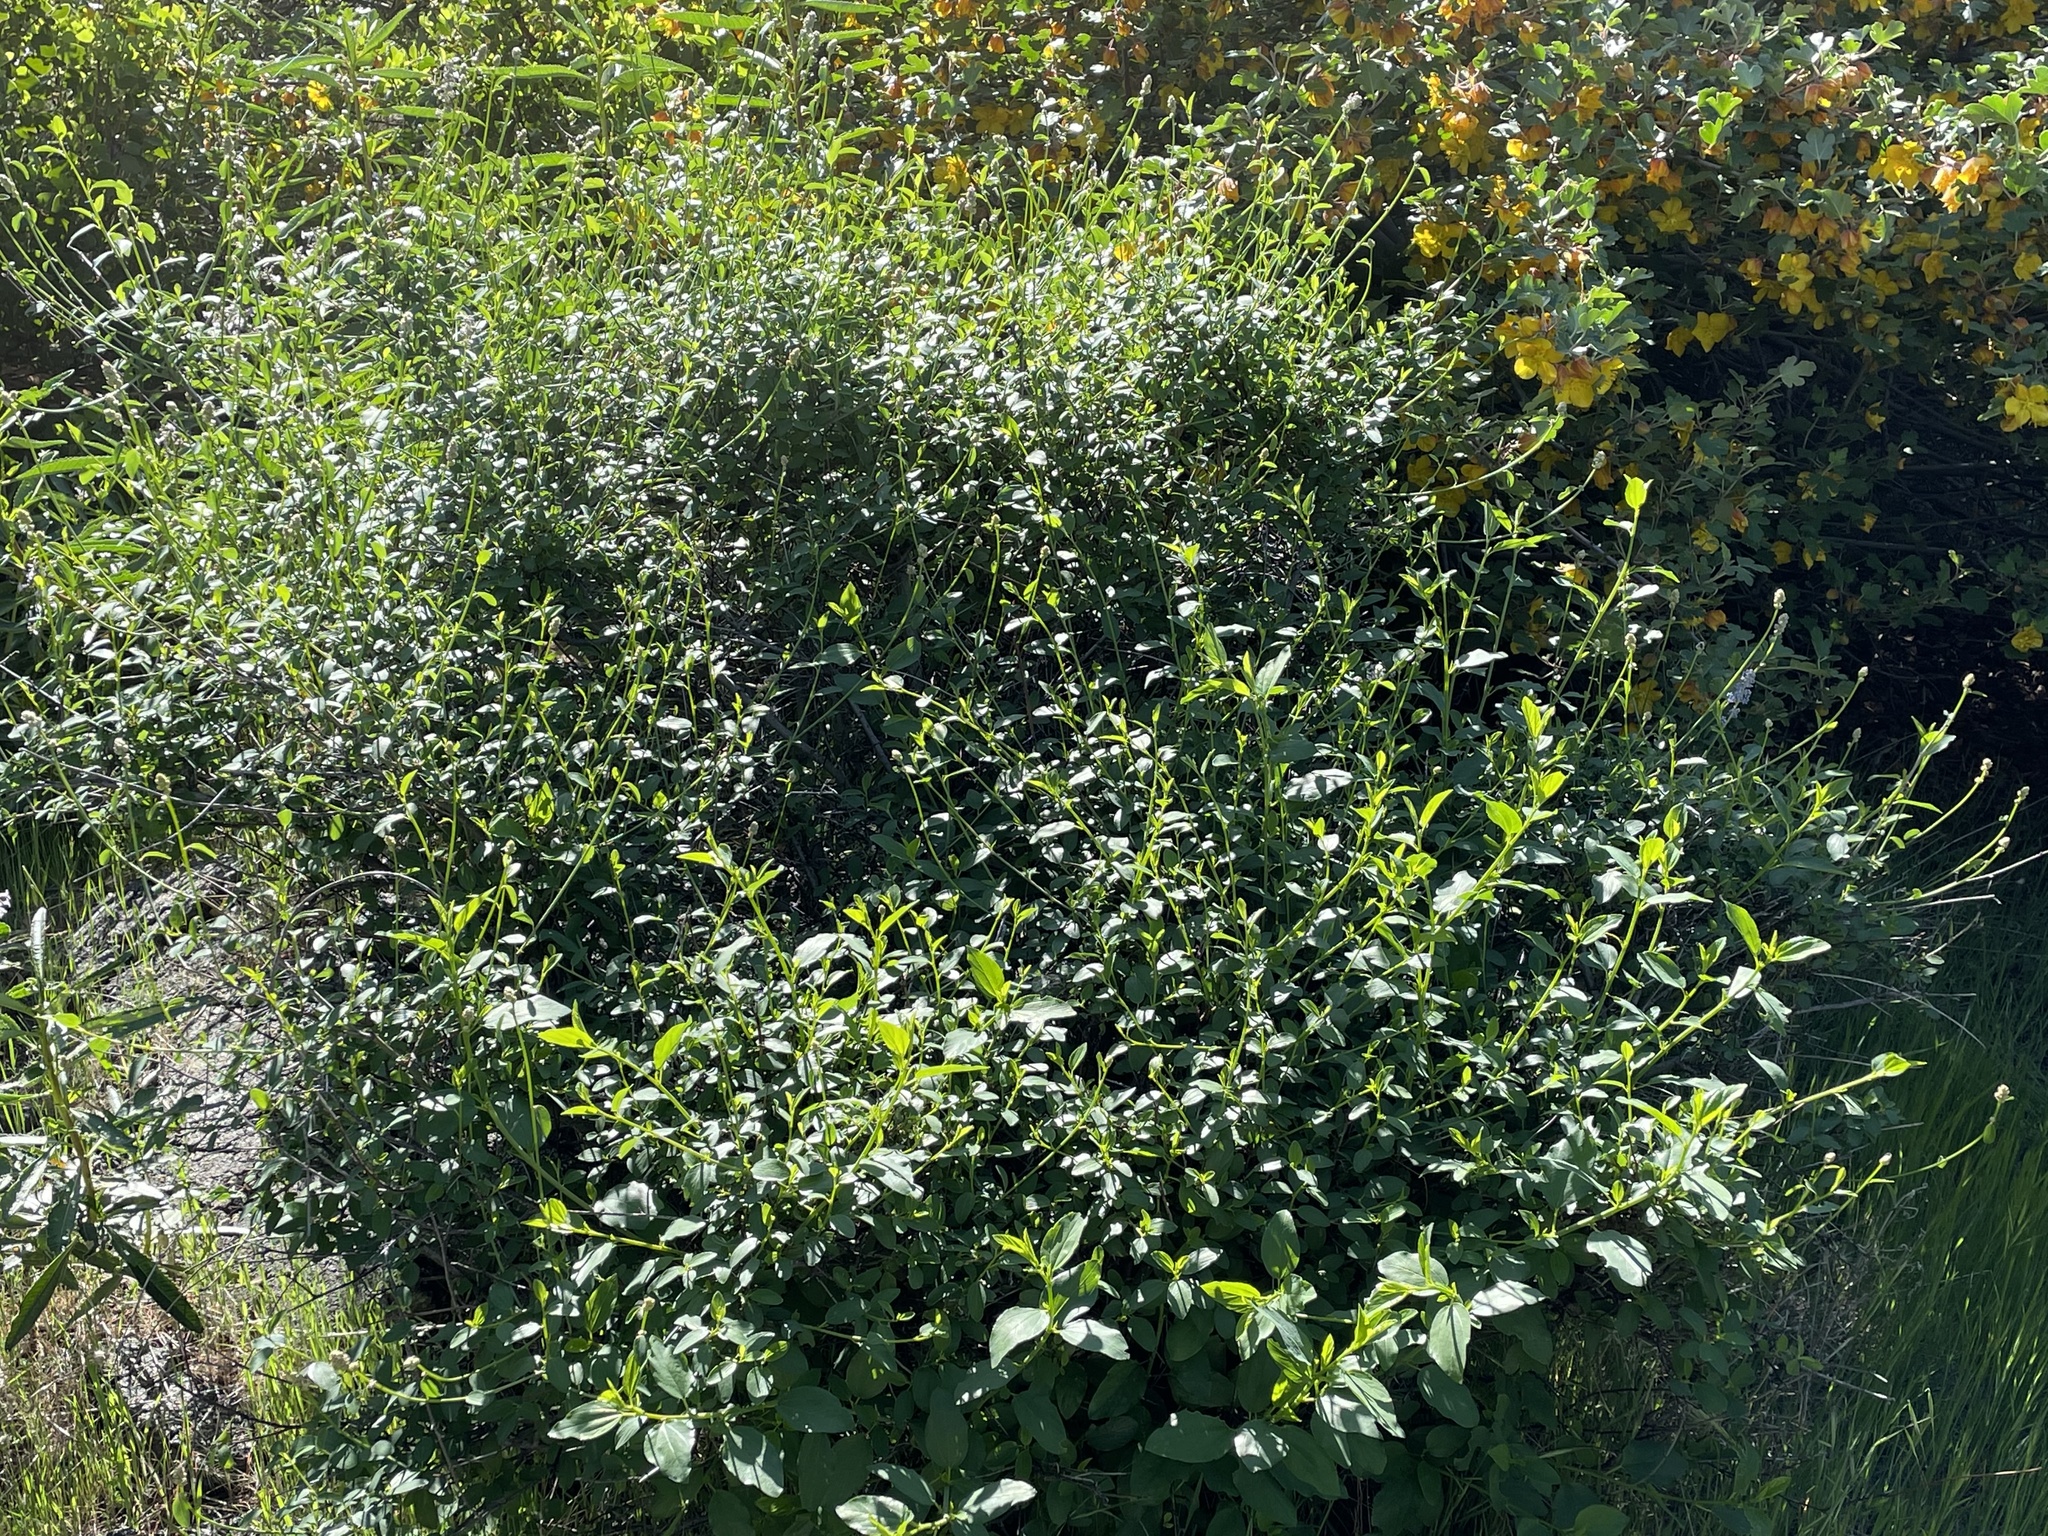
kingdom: Plantae
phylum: Tracheophyta
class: Magnoliopsida
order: Rosales
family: Rhamnaceae
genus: Ceanothus
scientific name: Ceanothus integerrimus
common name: Deerbrush ceanothus
